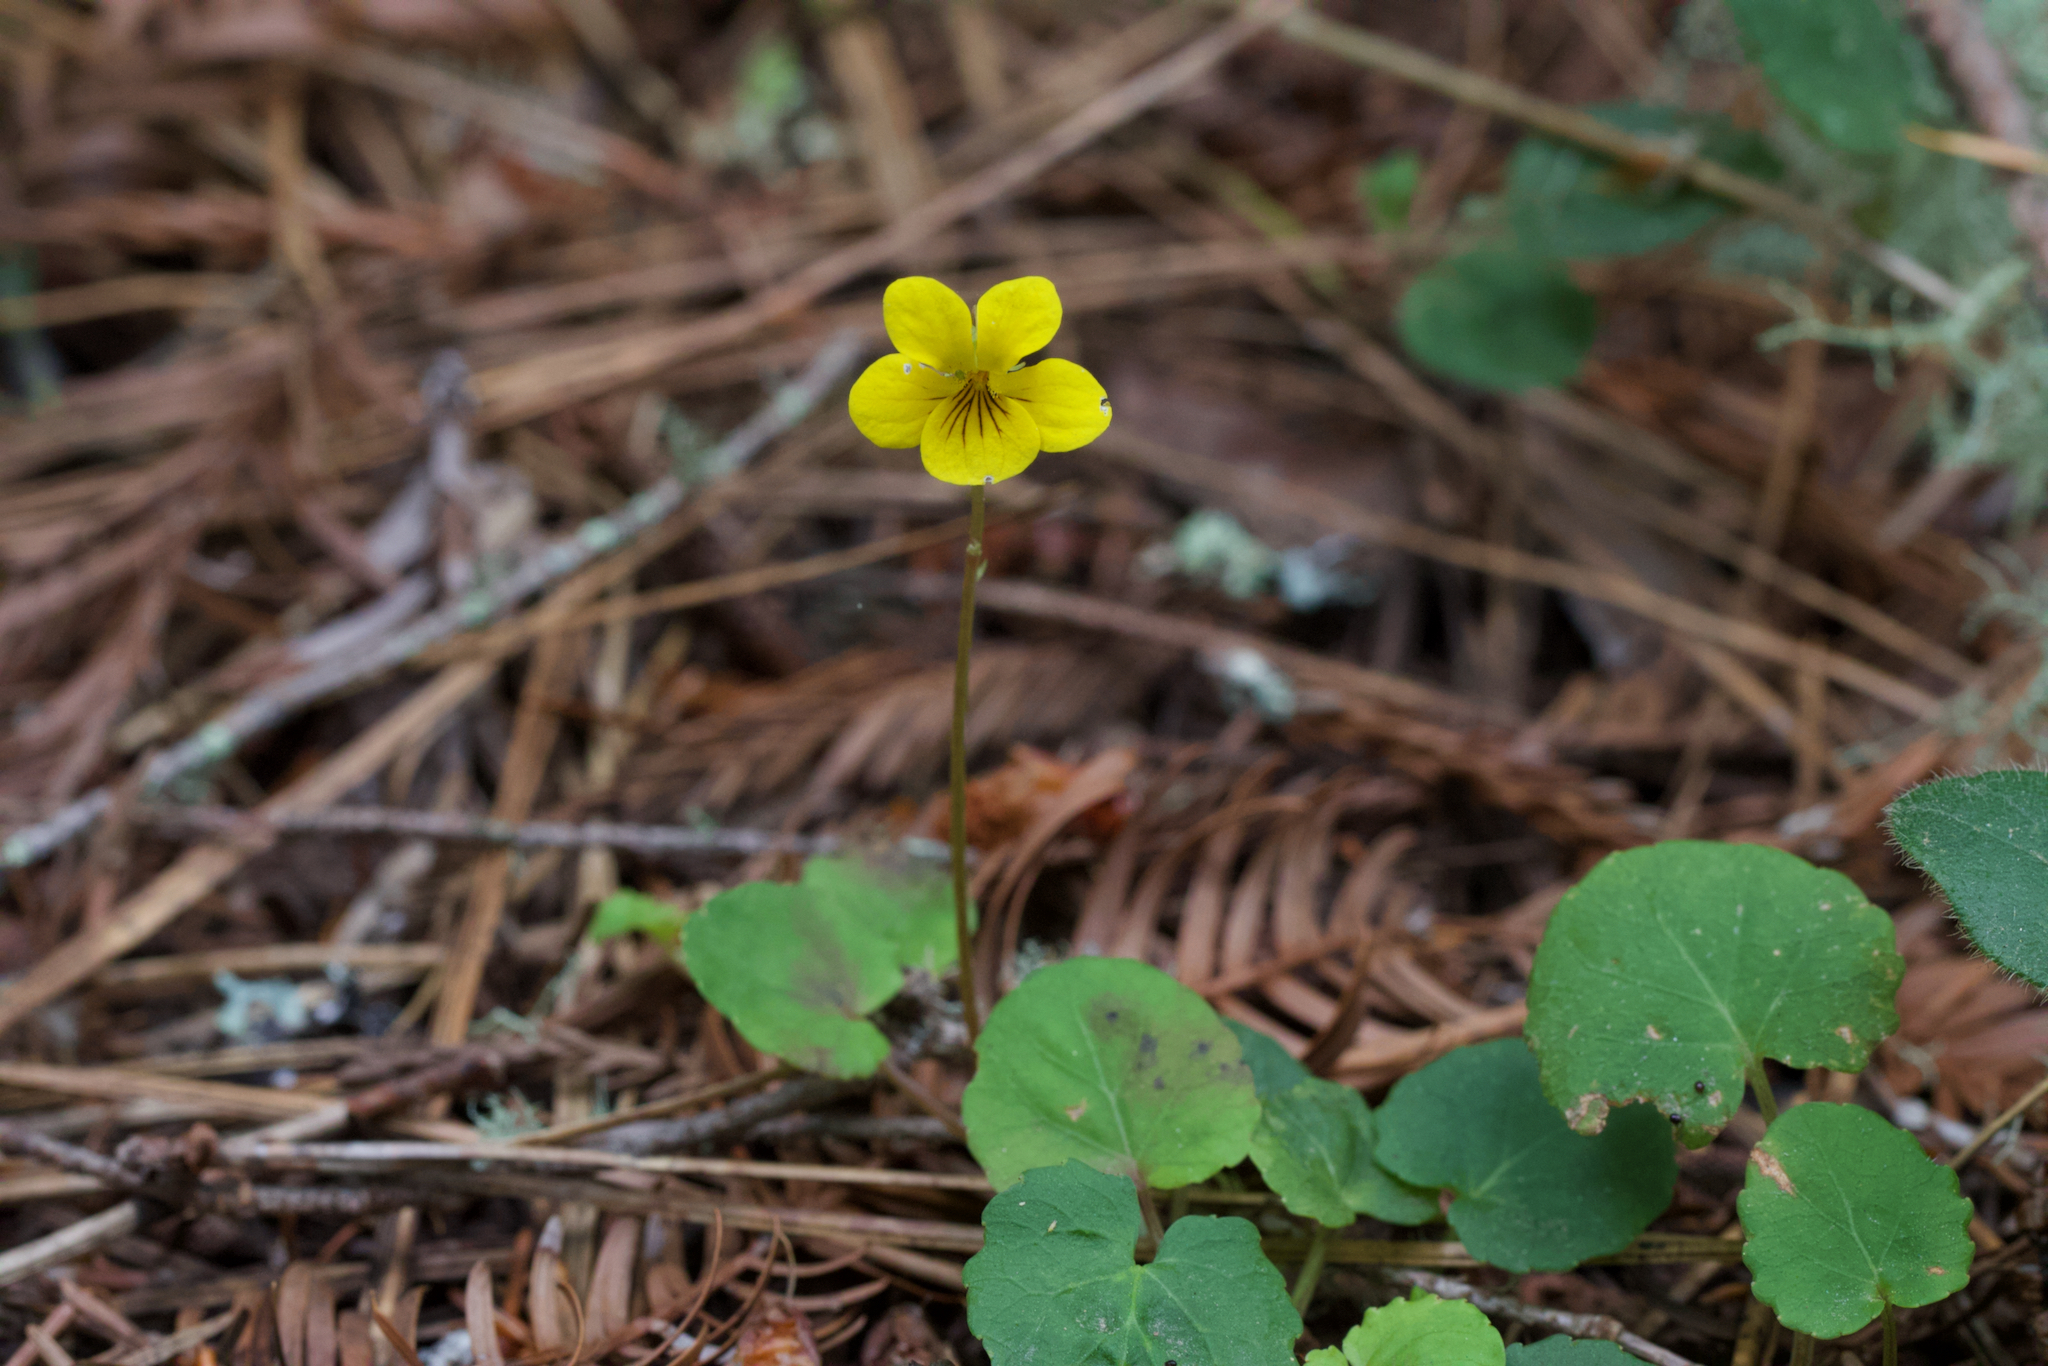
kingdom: Plantae
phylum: Tracheophyta
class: Magnoliopsida
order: Malpighiales
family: Violaceae
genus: Viola
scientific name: Viola sempervirens
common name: Evergreen violet
